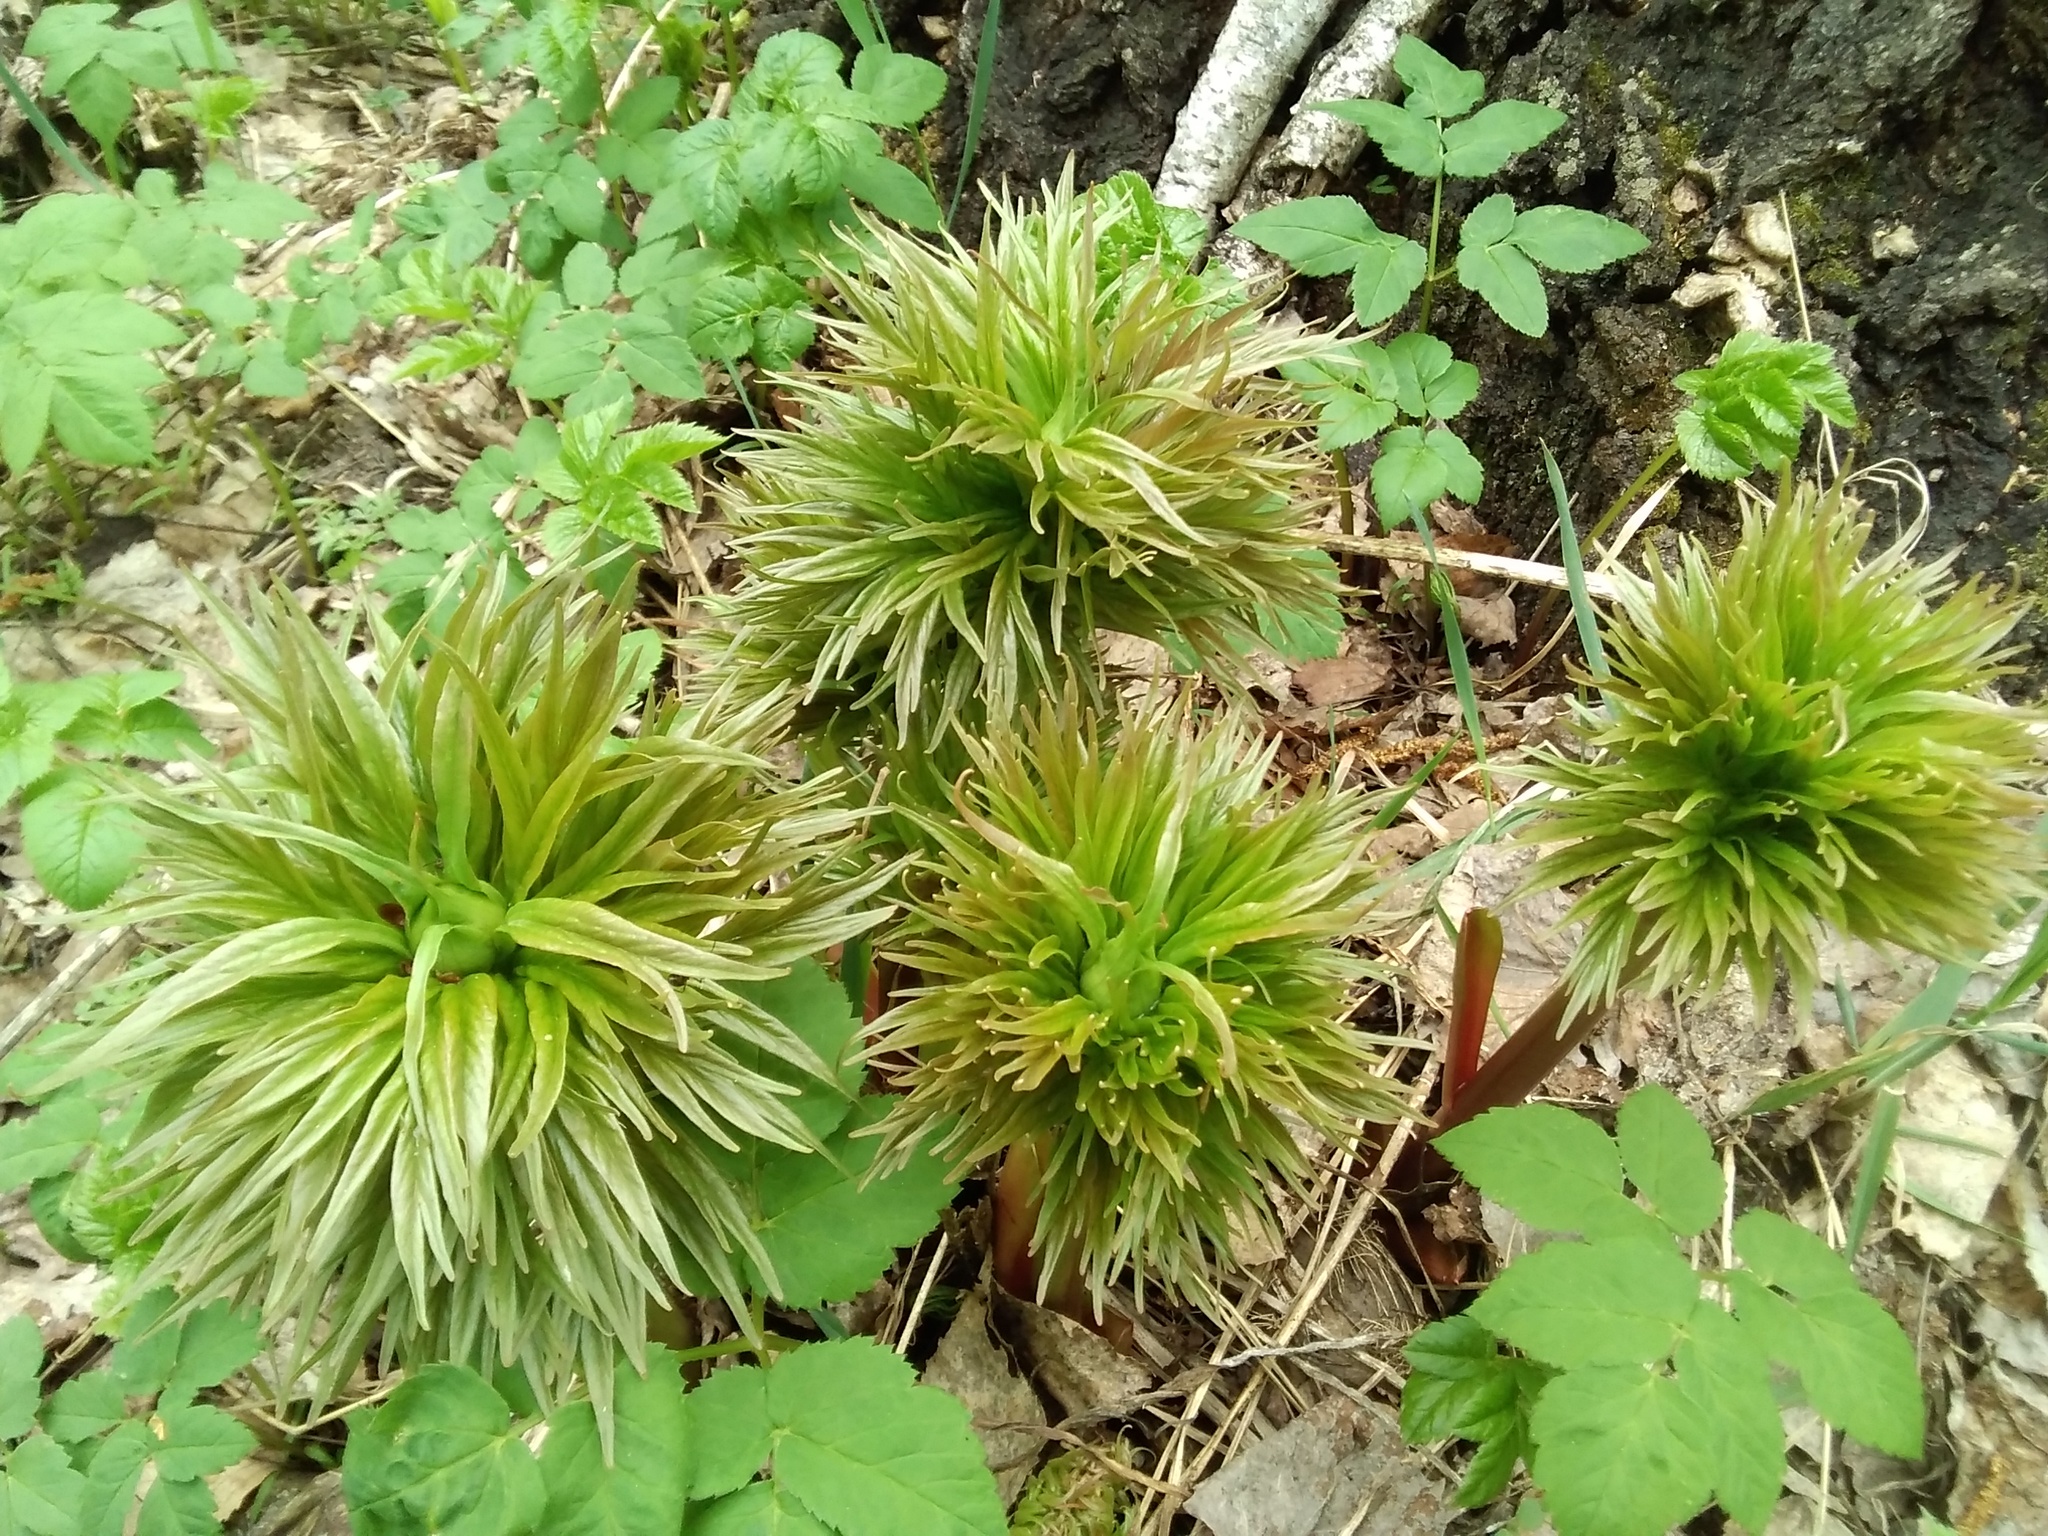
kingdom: Plantae
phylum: Tracheophyta
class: Magnoliopsida
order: Saxifragales
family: Paeoniaceae
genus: Paeonia
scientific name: Paeonia anomala
